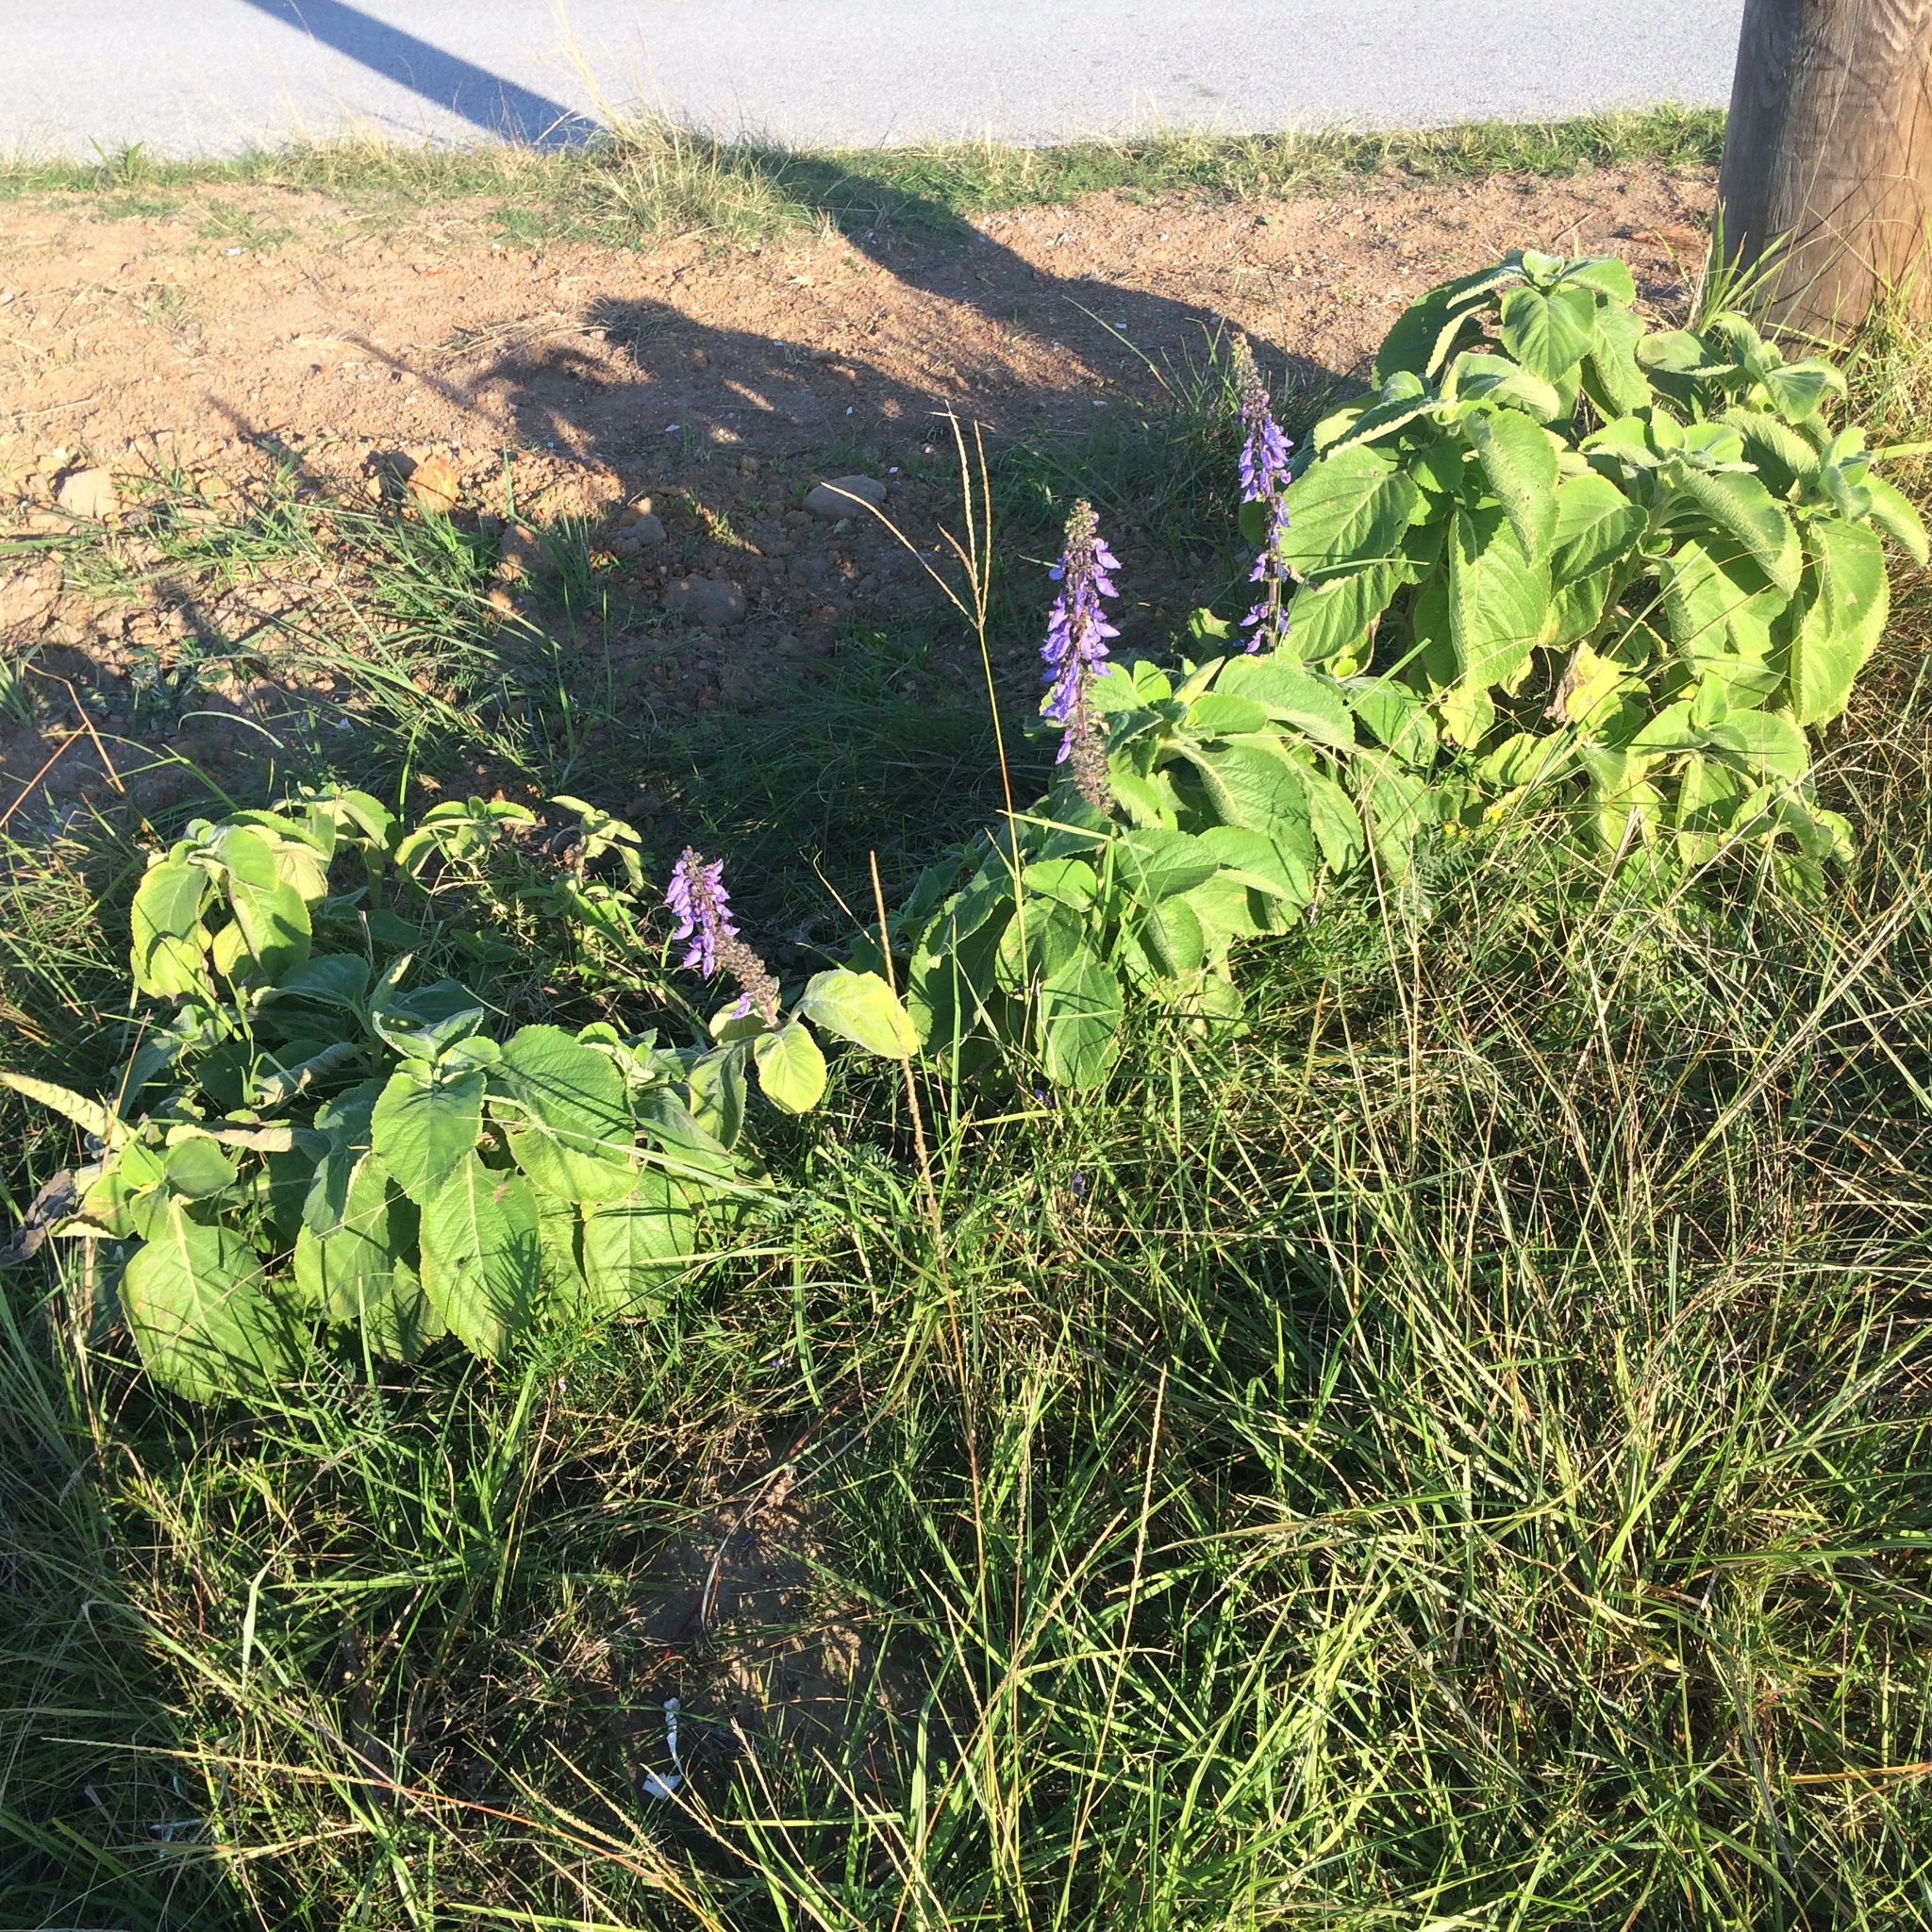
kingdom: Plantae
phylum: Tracheophyta
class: Magnoliopsida
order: Lamiales
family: Lamiaceae
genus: Coleus
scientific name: Coleus barbatus
